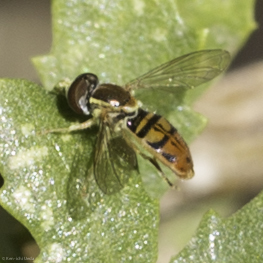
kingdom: Animalia
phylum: Arthropoda
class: Insecta
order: Diptera
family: Syrphidae
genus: Toxomerus
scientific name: Toxomerus marginatus
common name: Syrphid fly
